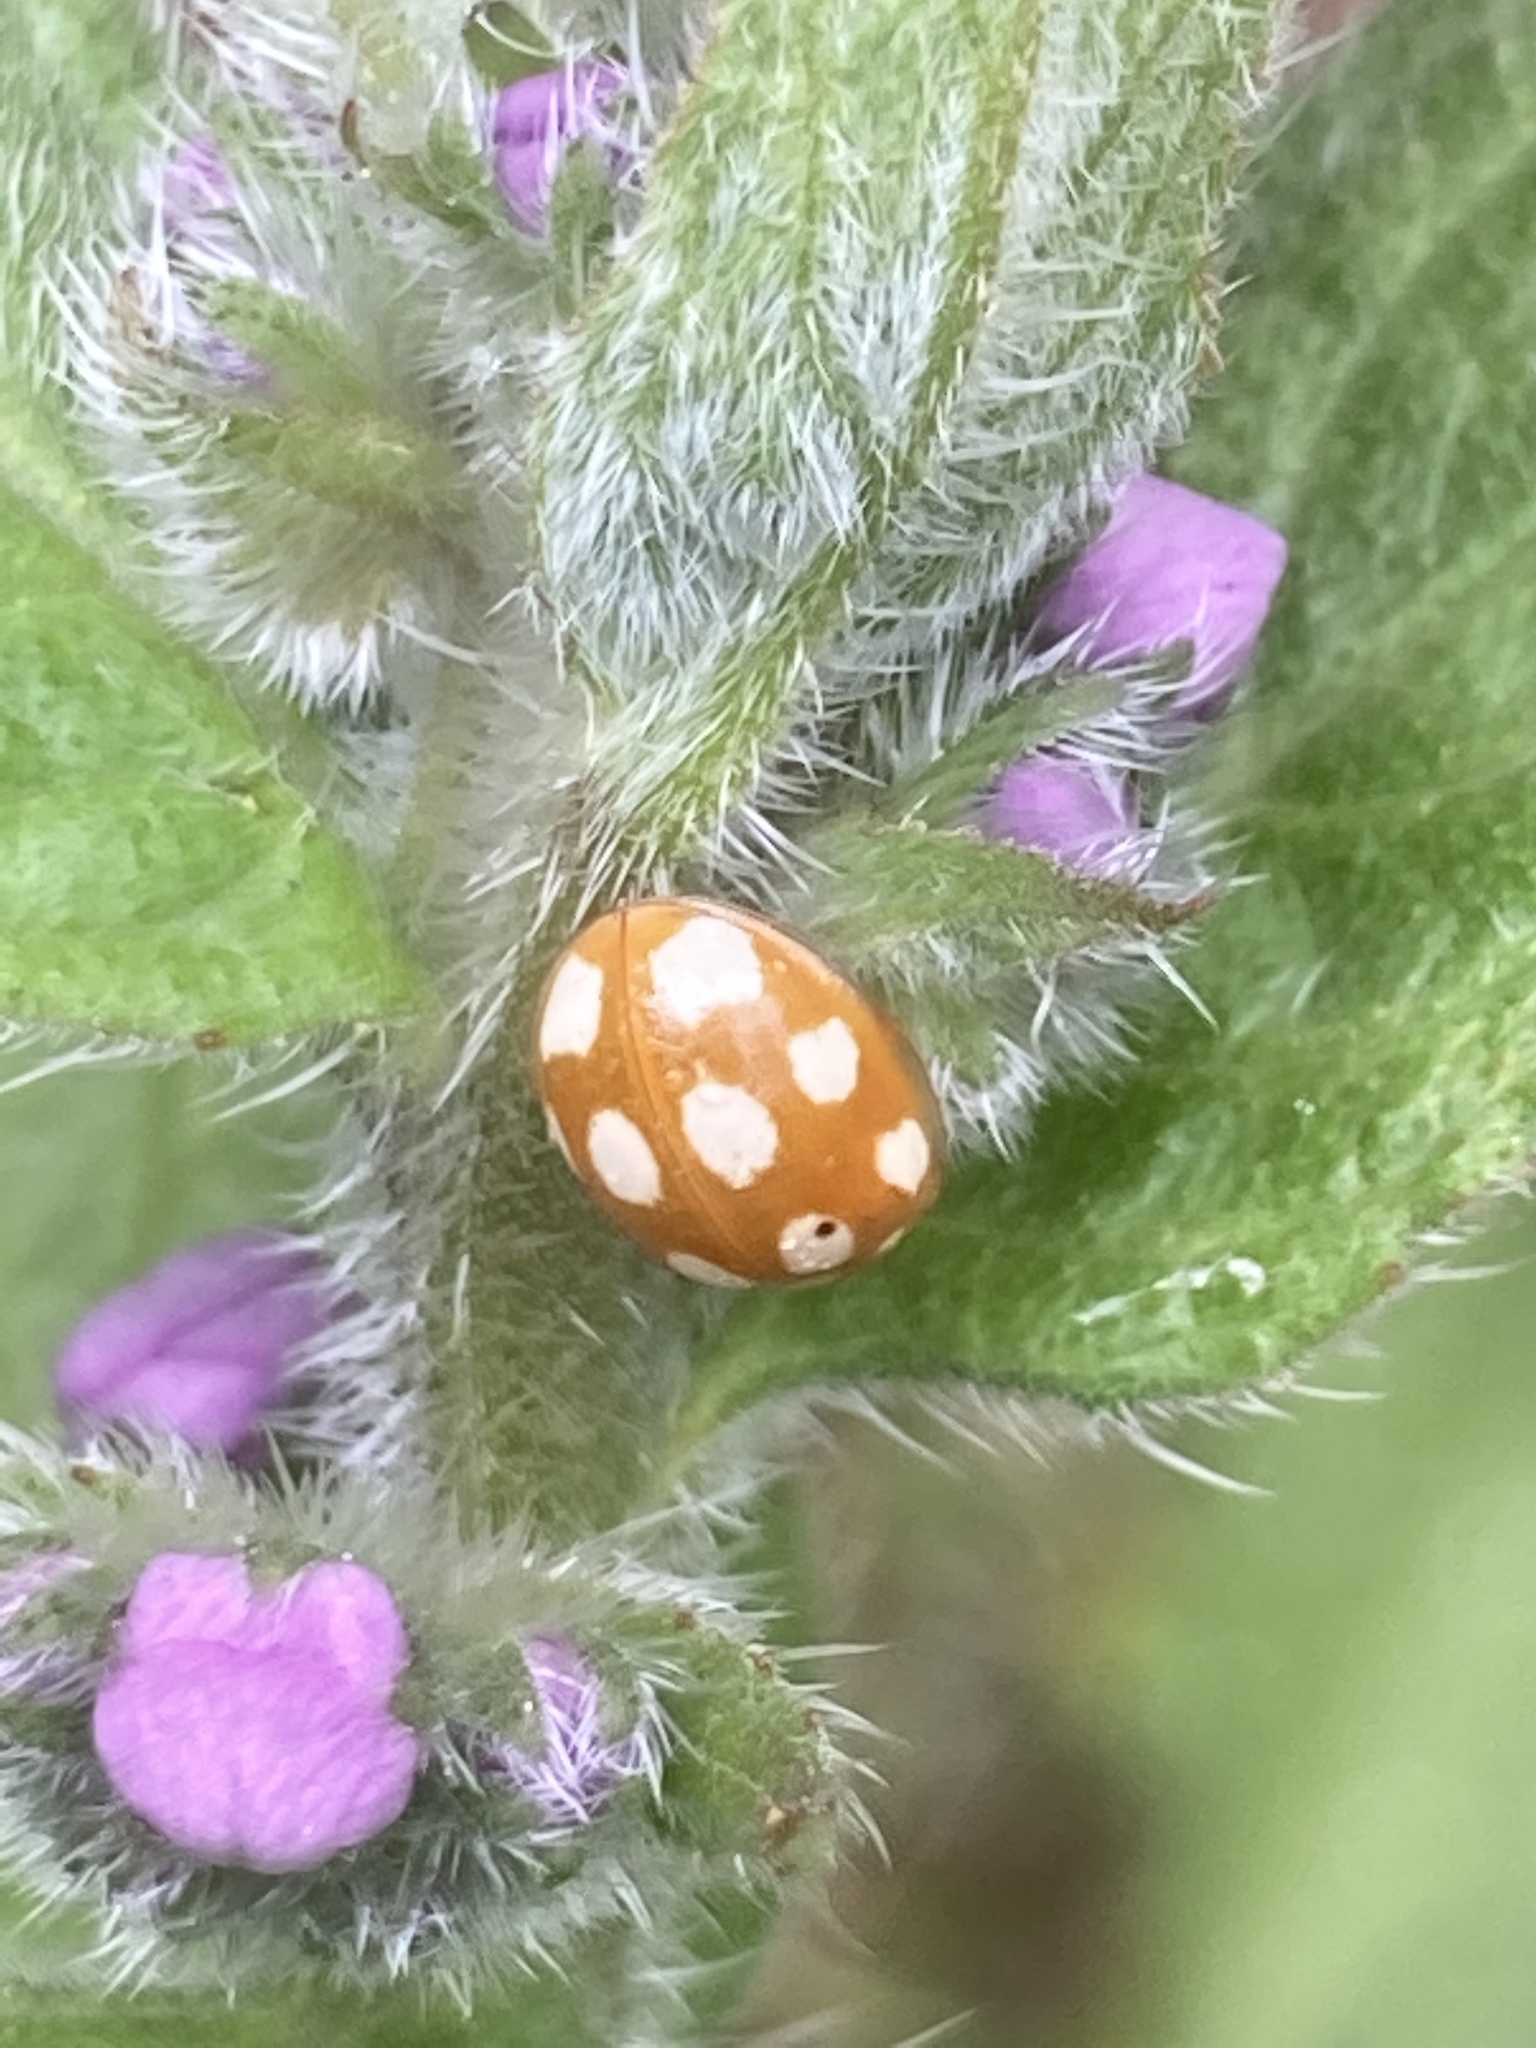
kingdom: Animalia
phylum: Arthropoda
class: Insecta
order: Coleoptera
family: Coccinellidae
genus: Coccinellina
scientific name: Coccinellina
